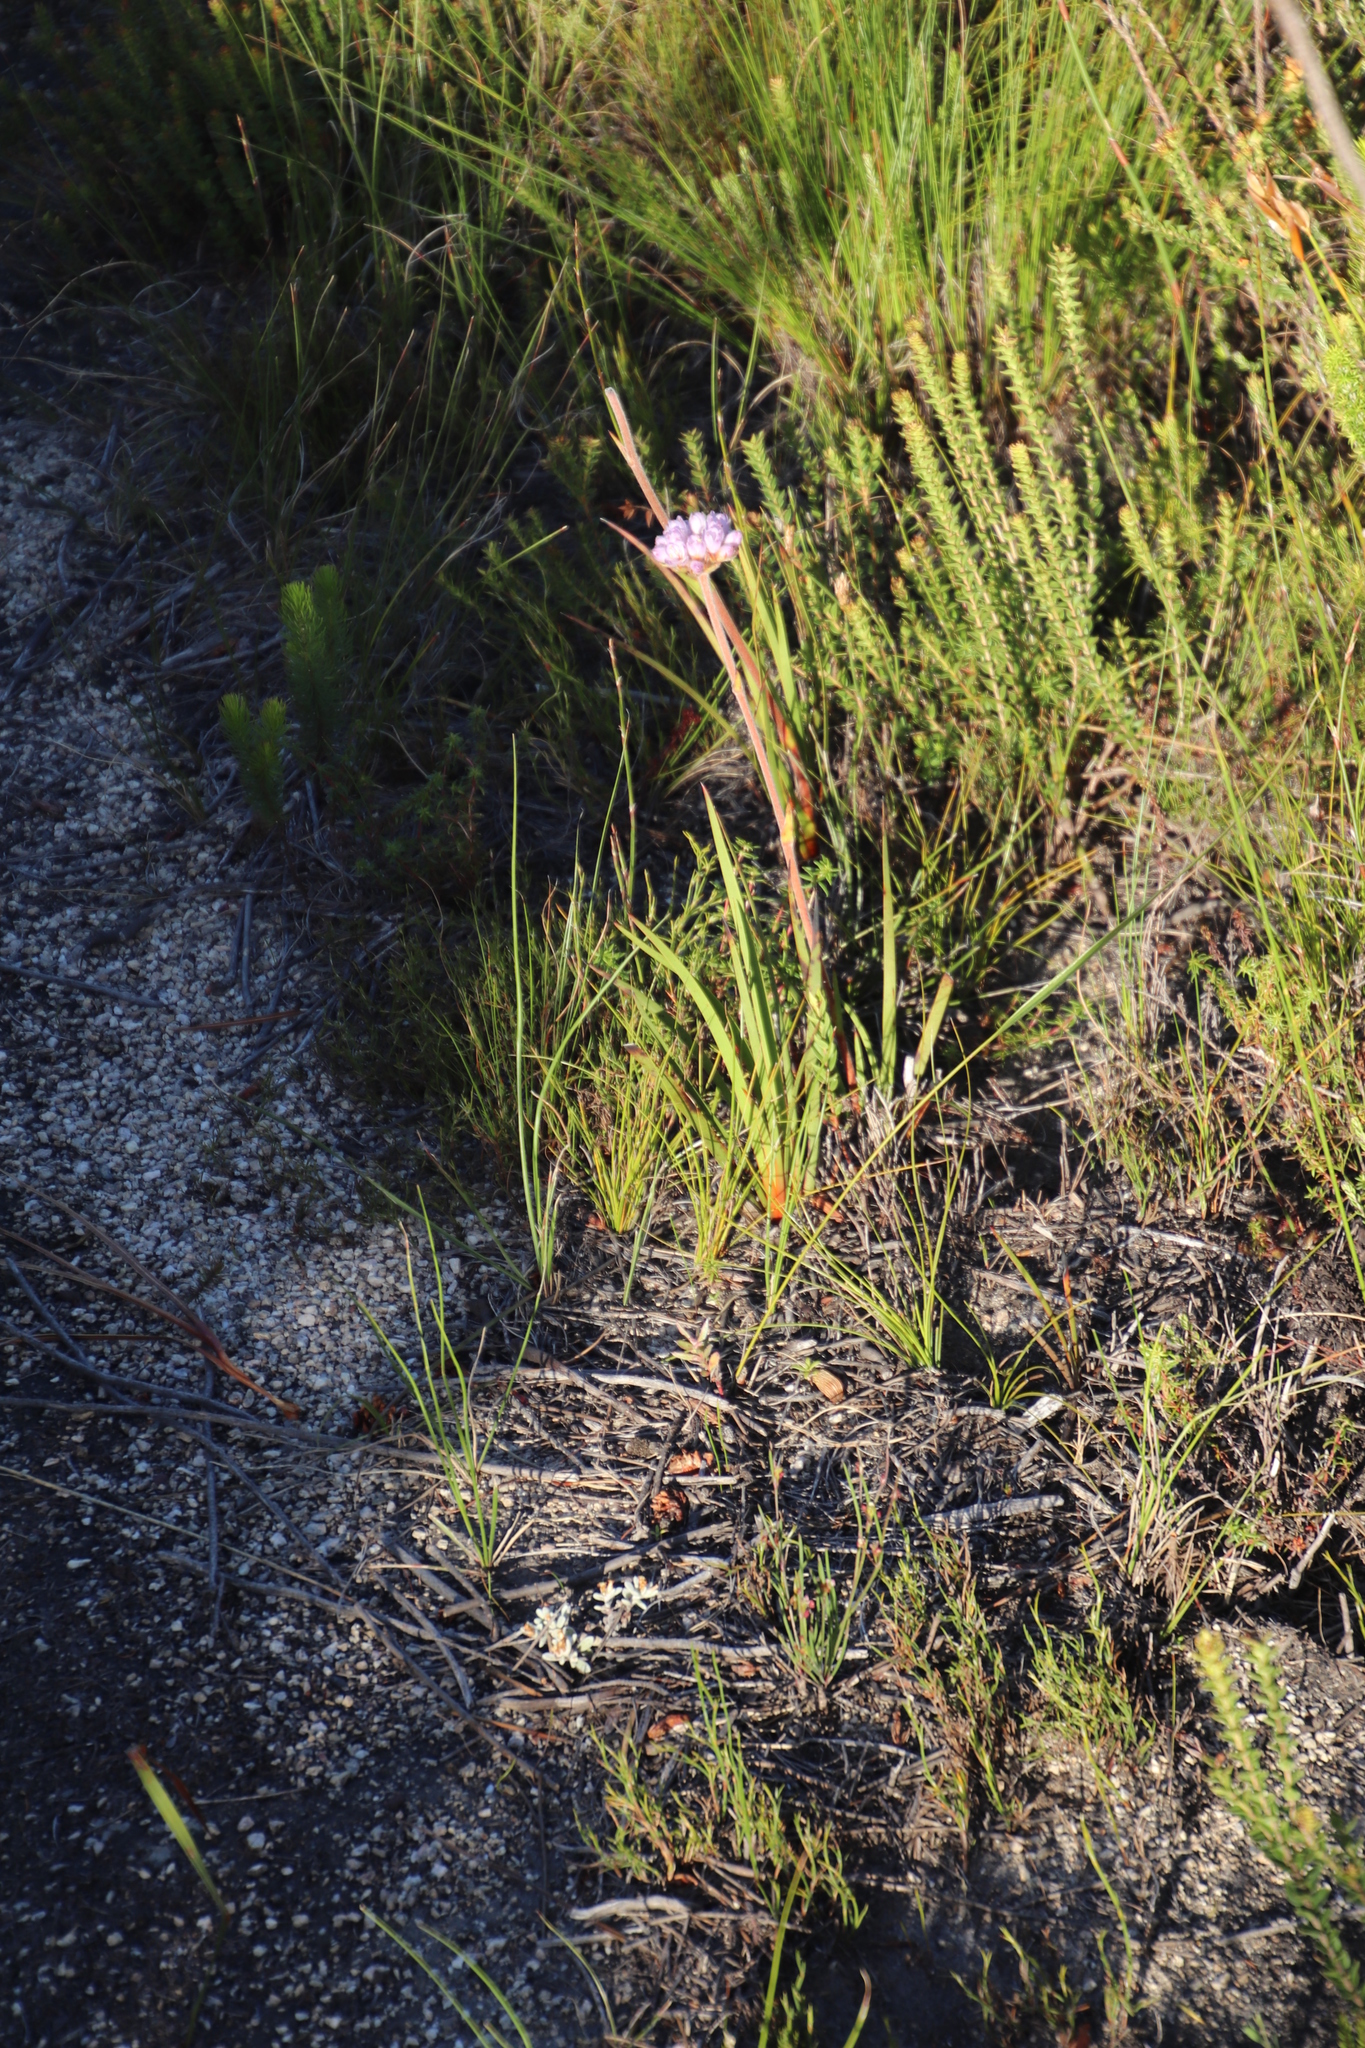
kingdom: Plantae
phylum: Tracheophyta
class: Liliopsida
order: Commelinales
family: Haemodoraceae
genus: Dilatris
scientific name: Dilatris pillansii
